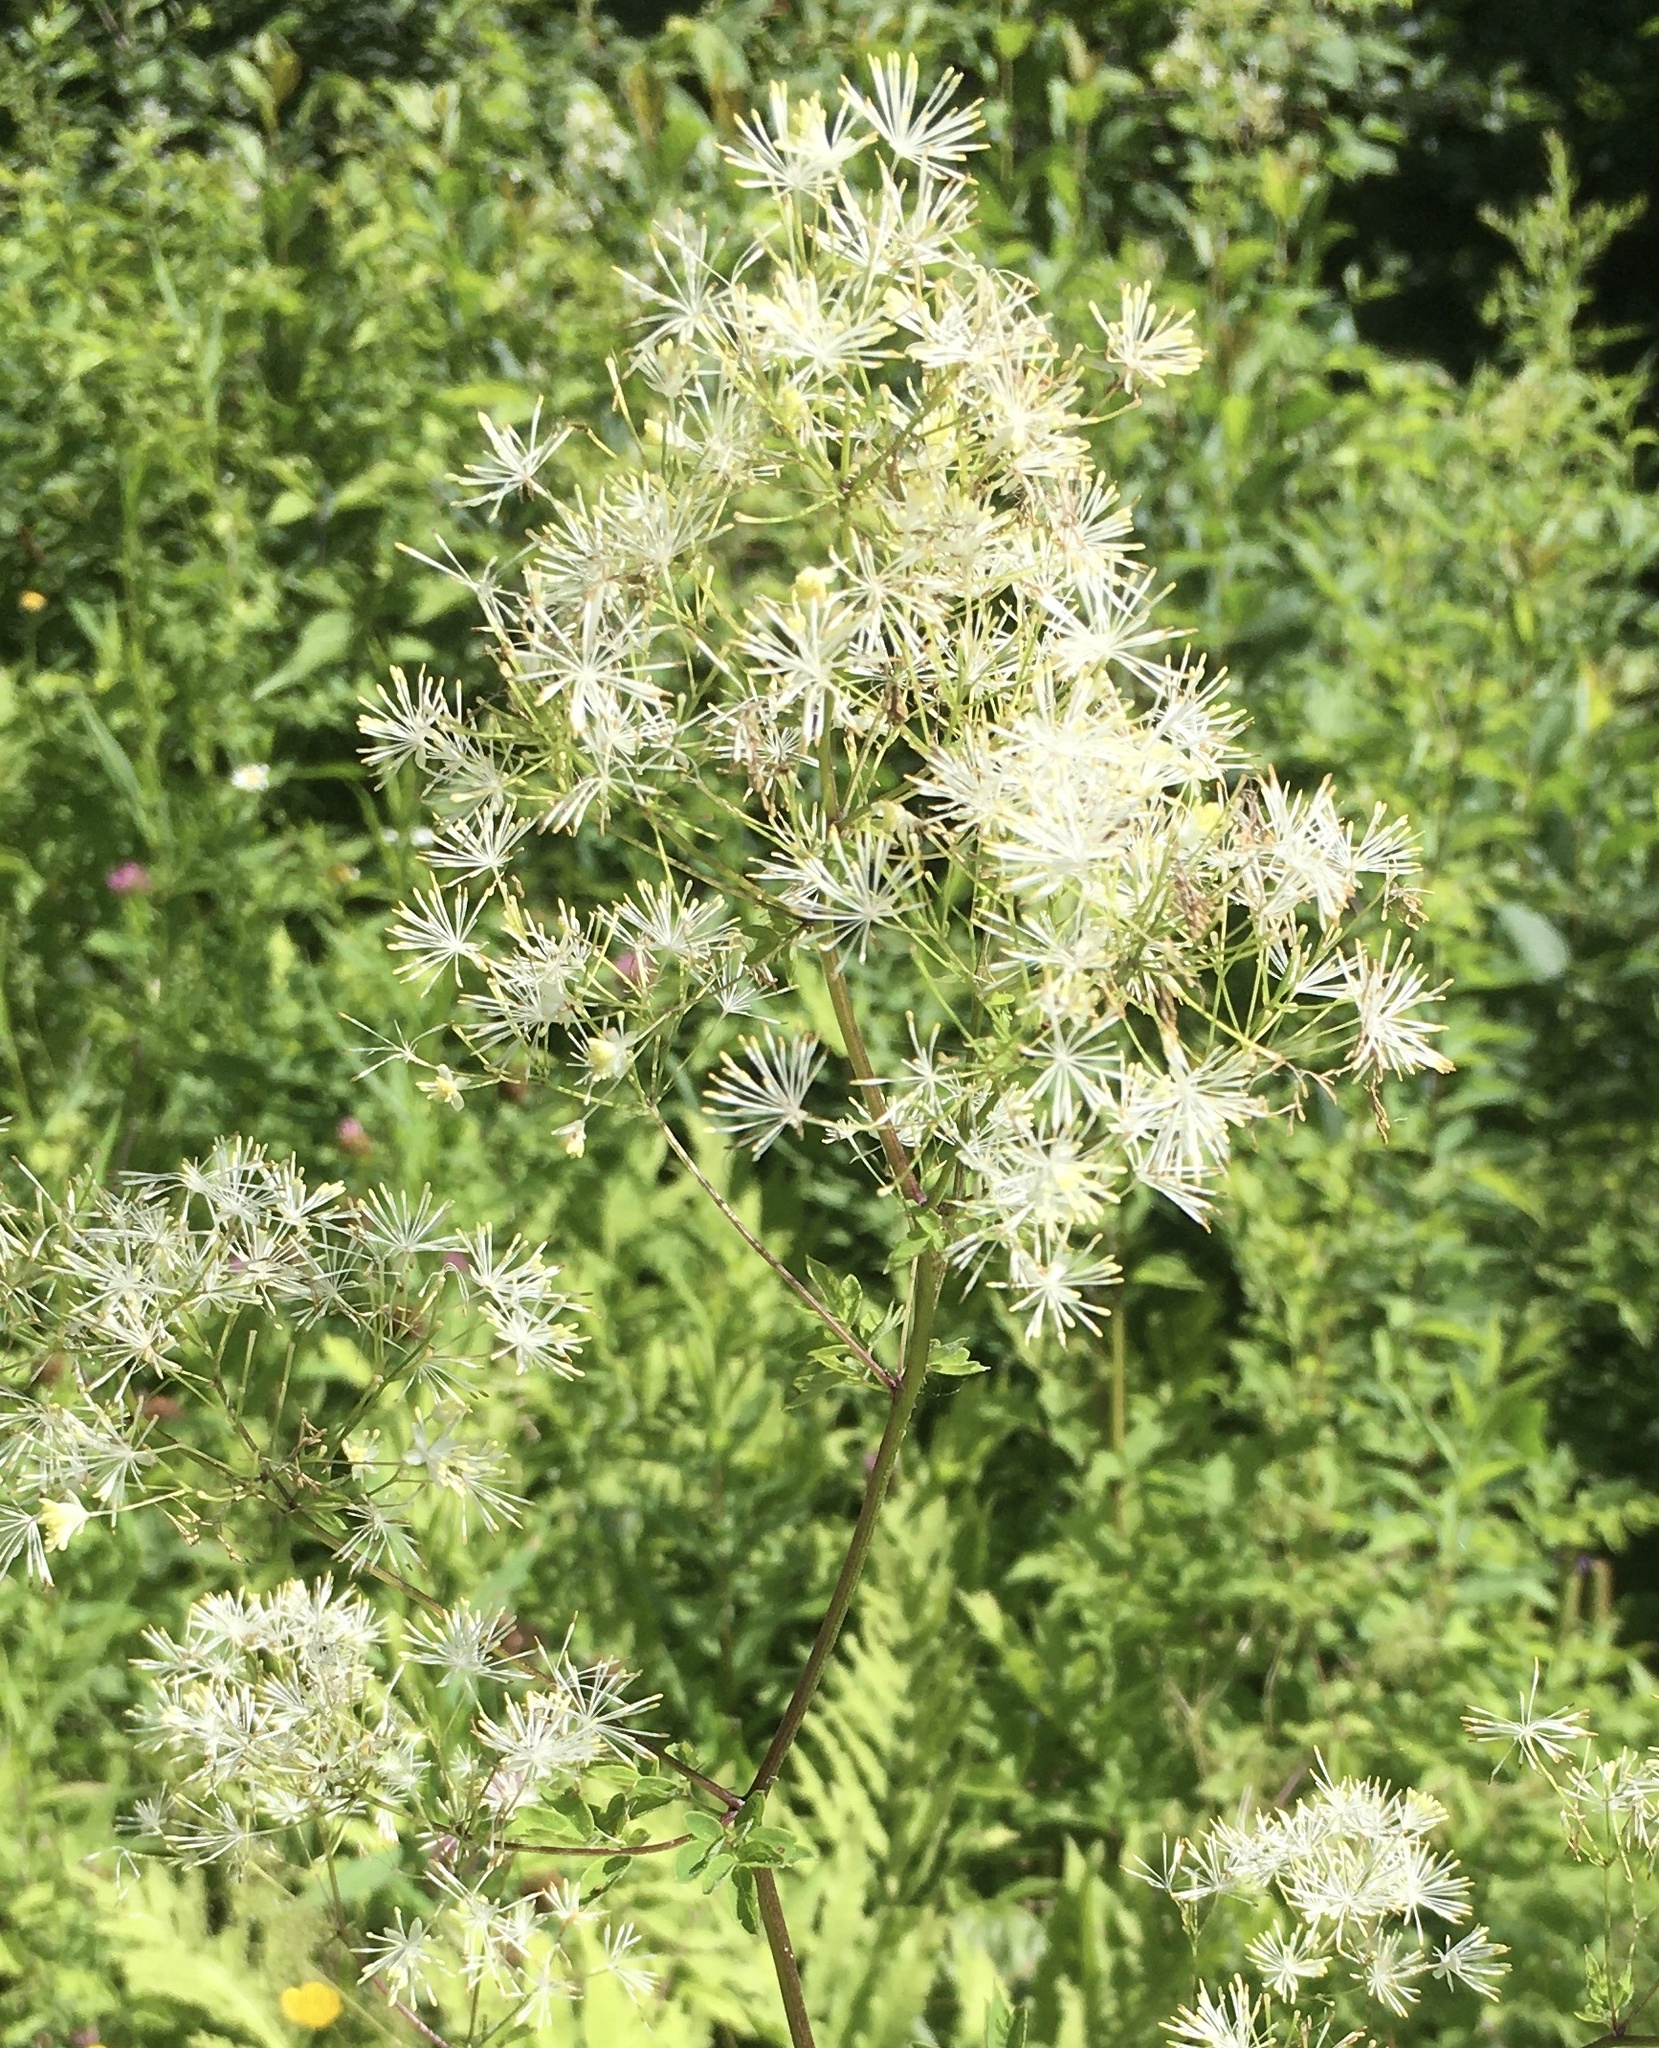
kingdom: Plantae
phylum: Tracheophyta
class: Magnoliopsida
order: Ranunculales
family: Ranunculaceae
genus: Thalictrum
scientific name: Thalictrum pubescens
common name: King-of-the-meadow
